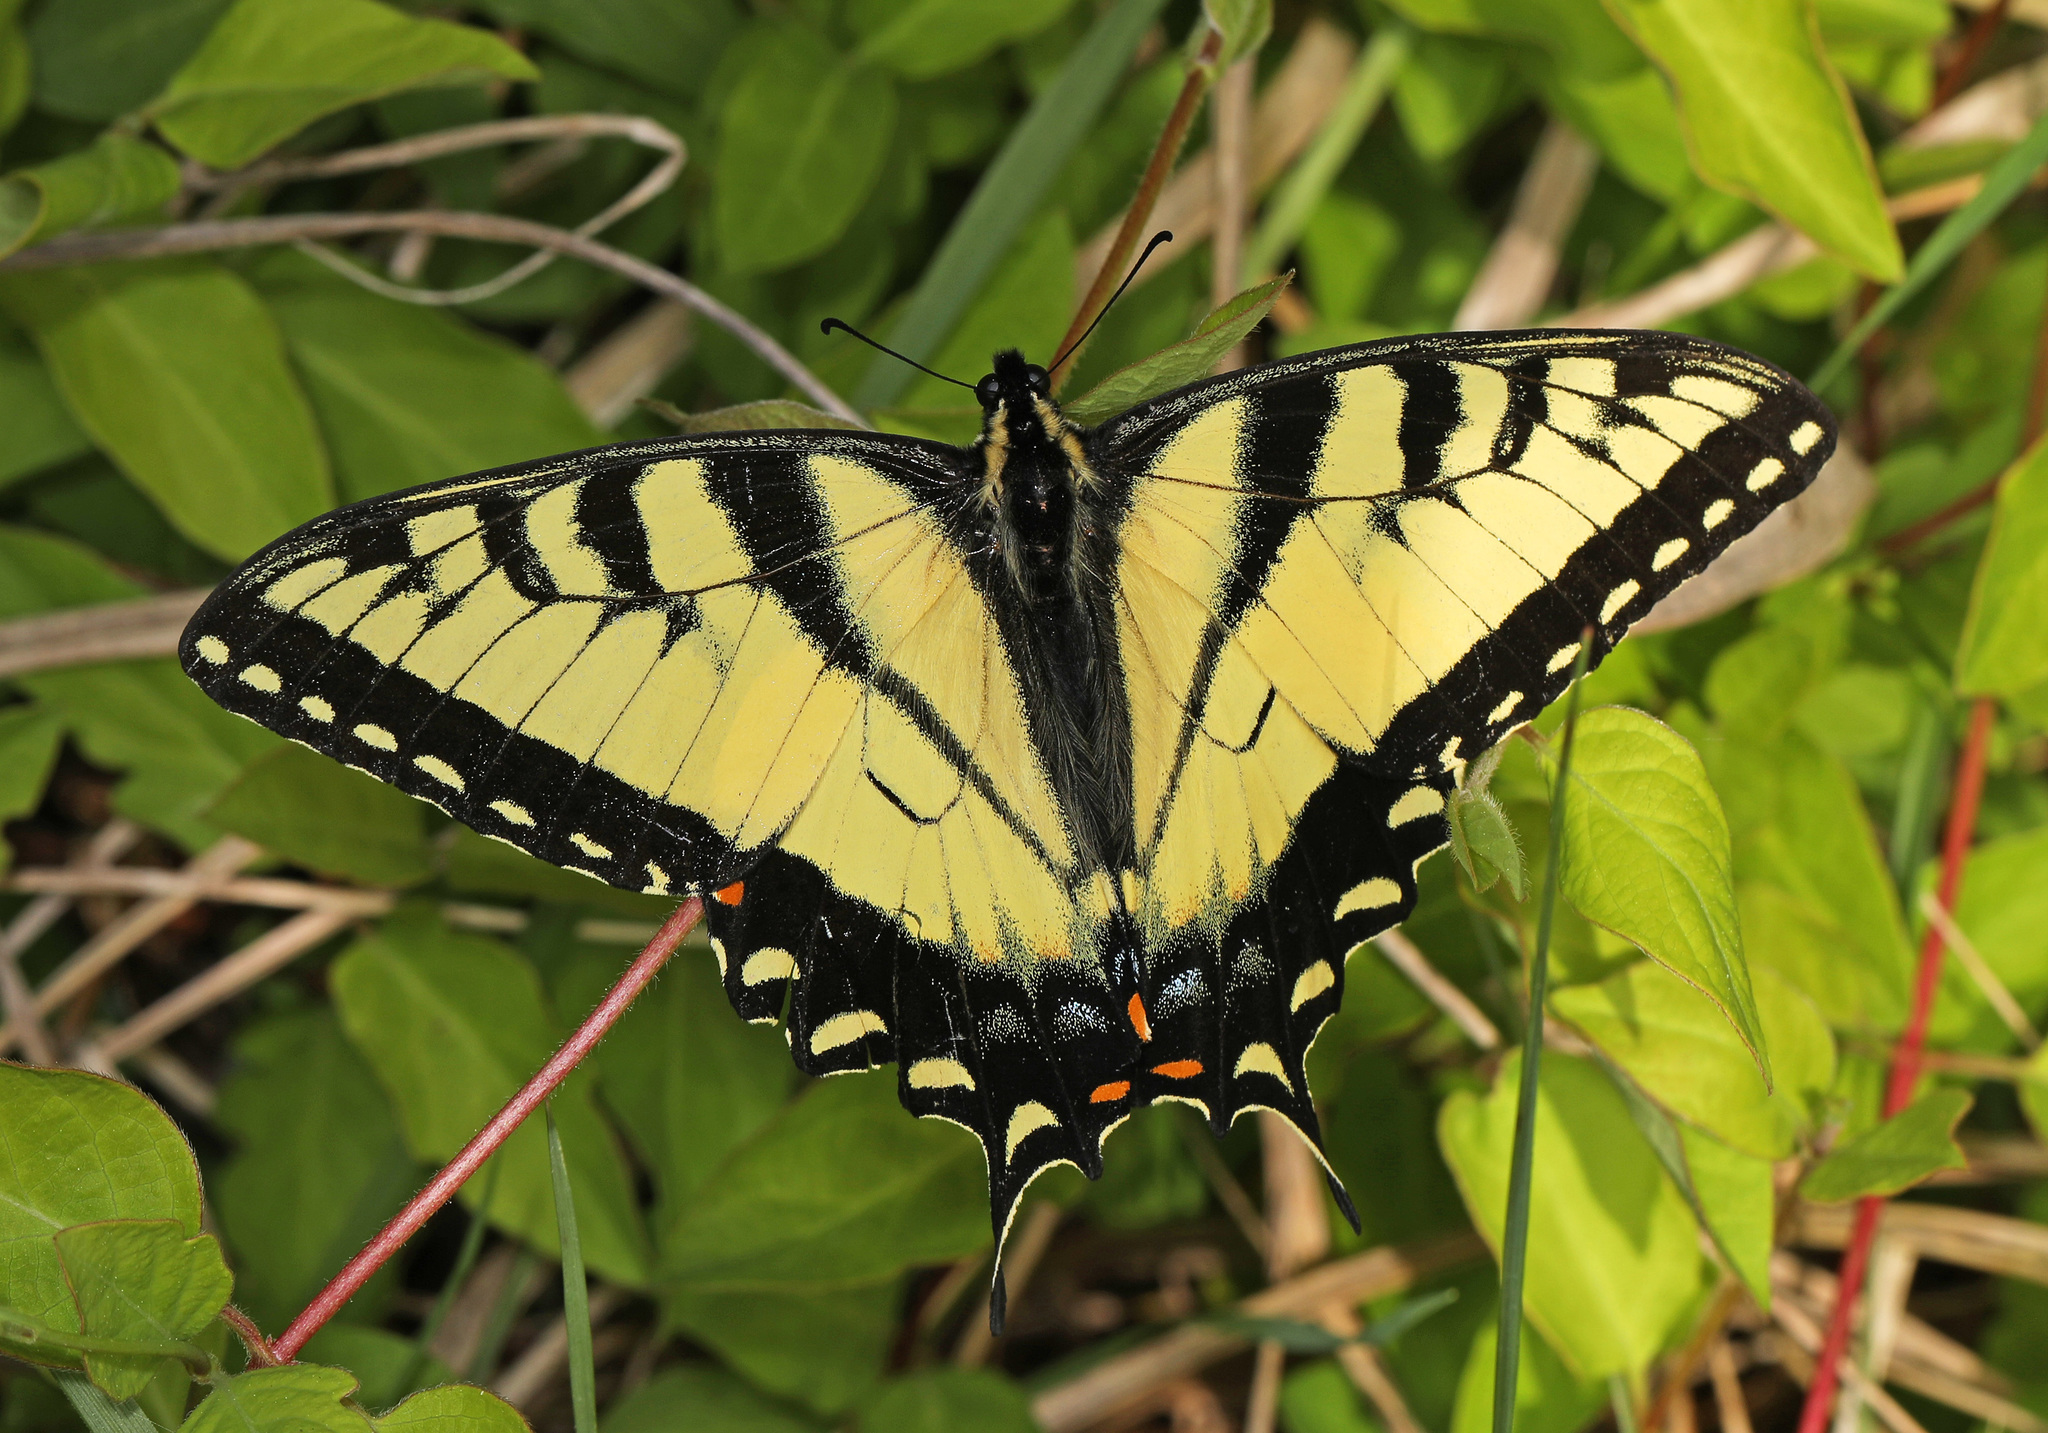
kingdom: Animalia
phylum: Arthropoda
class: Insecta
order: Lepidoptera
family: Papilionidae
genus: Papilio
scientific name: Papilio glaucus
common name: Tiger swallowtail
